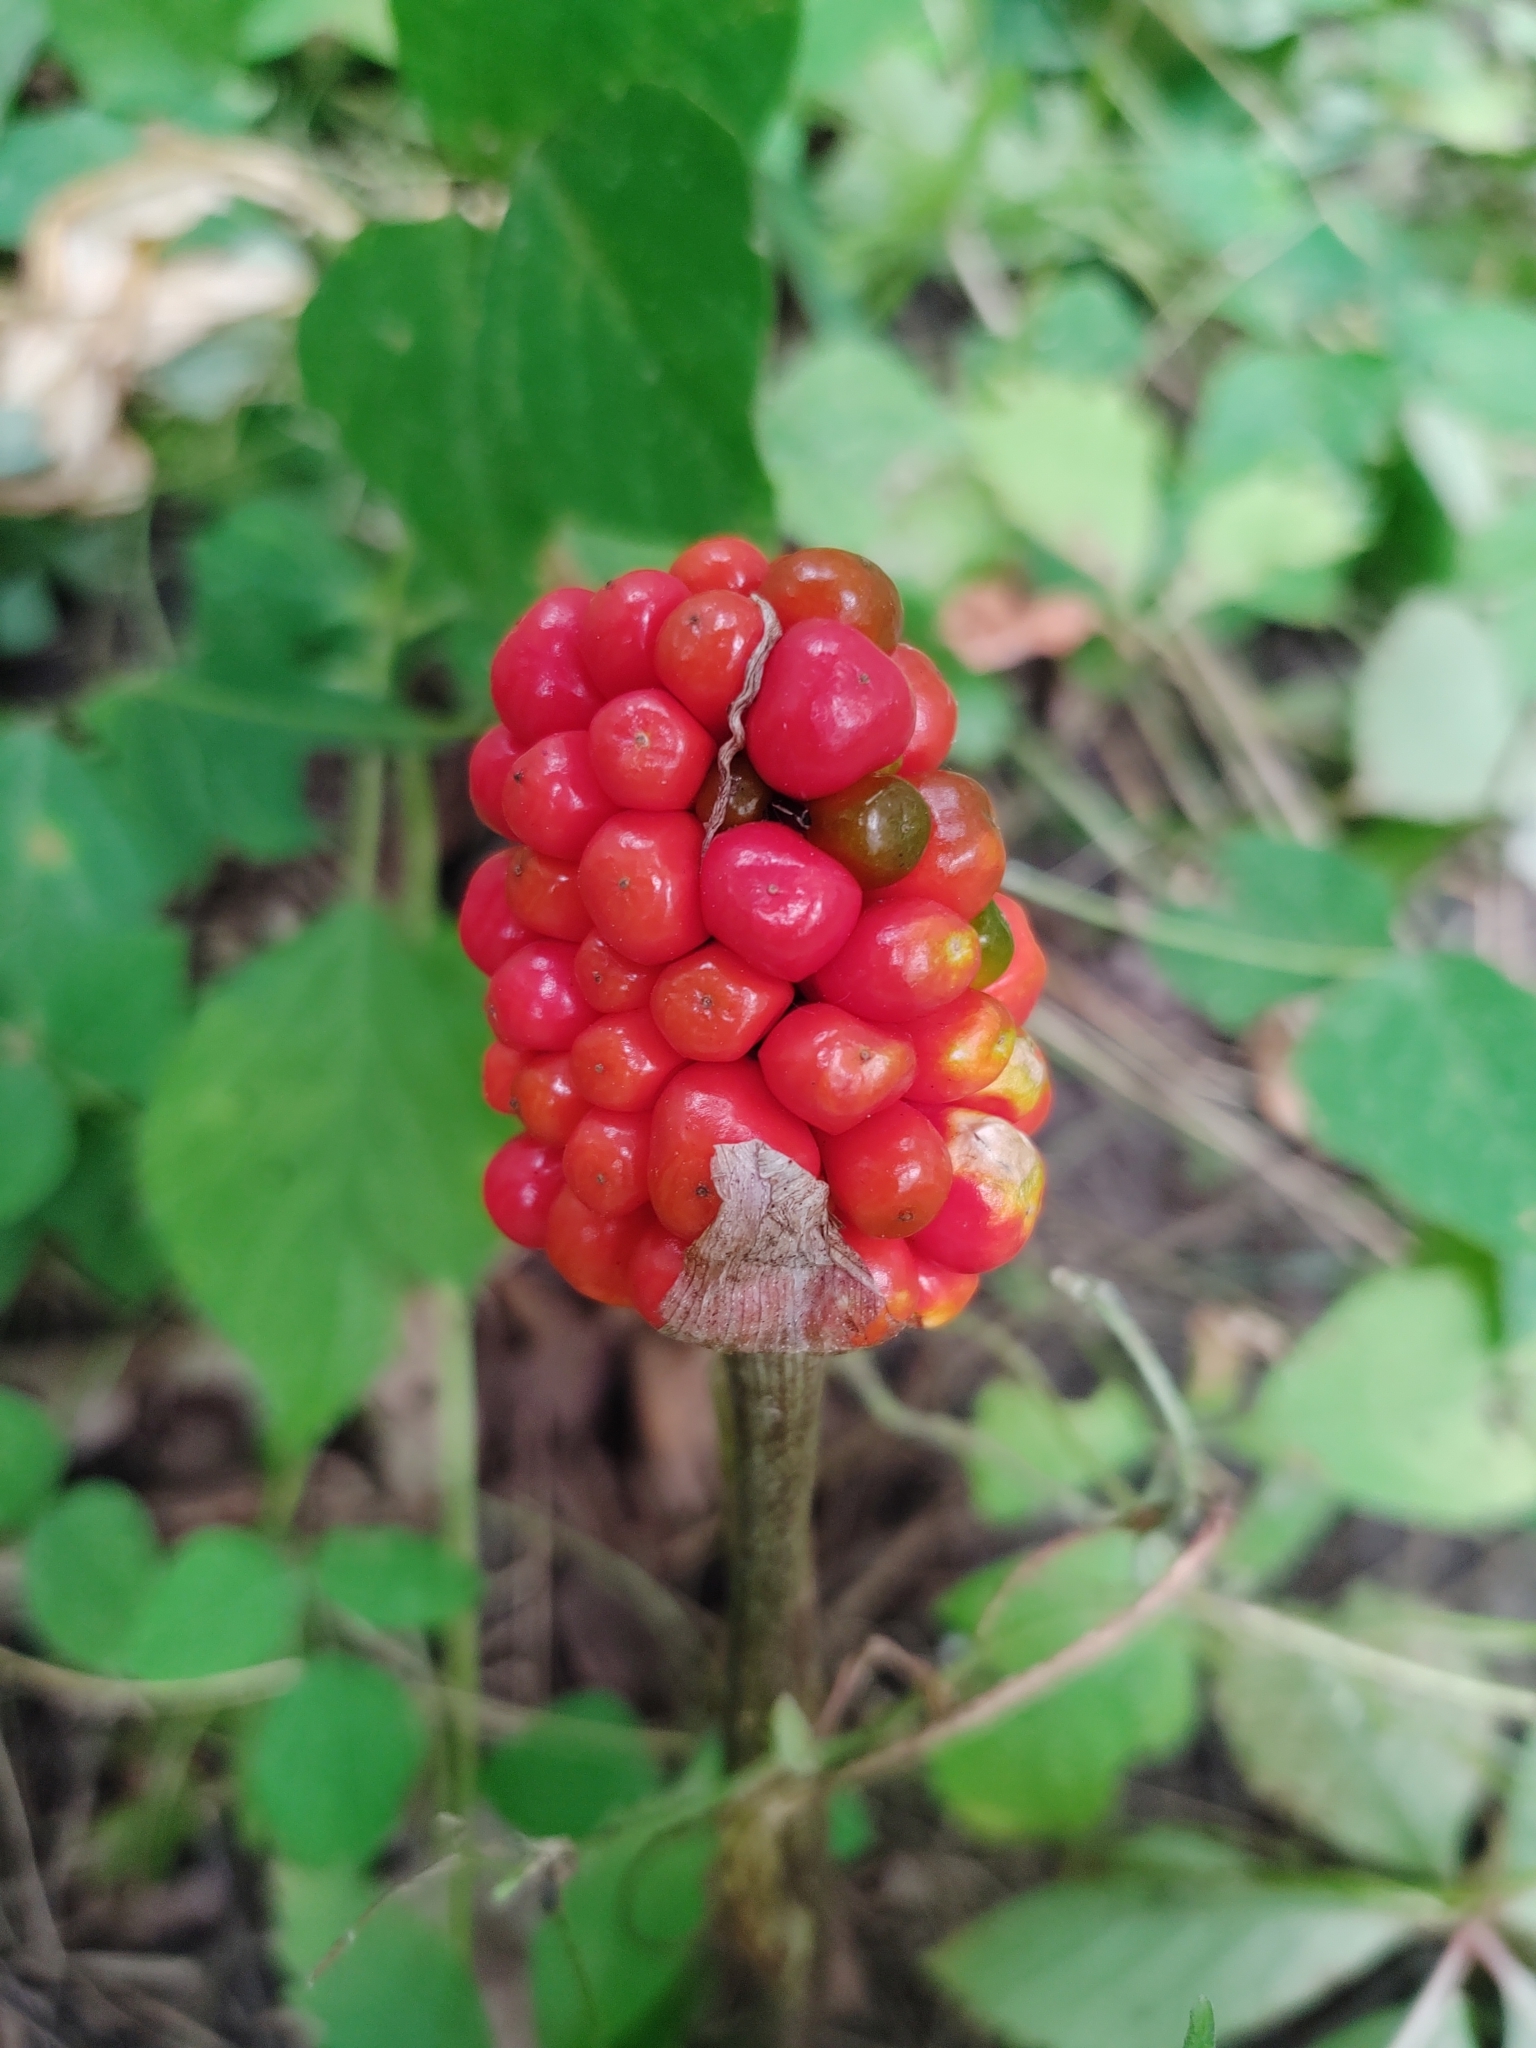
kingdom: Plantae
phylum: Tracheophyta
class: Liliopsida
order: Alismatales
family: Araceae
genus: Arisaema
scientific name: Arisaema triphyllum
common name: Jack-in-the-pulpit
